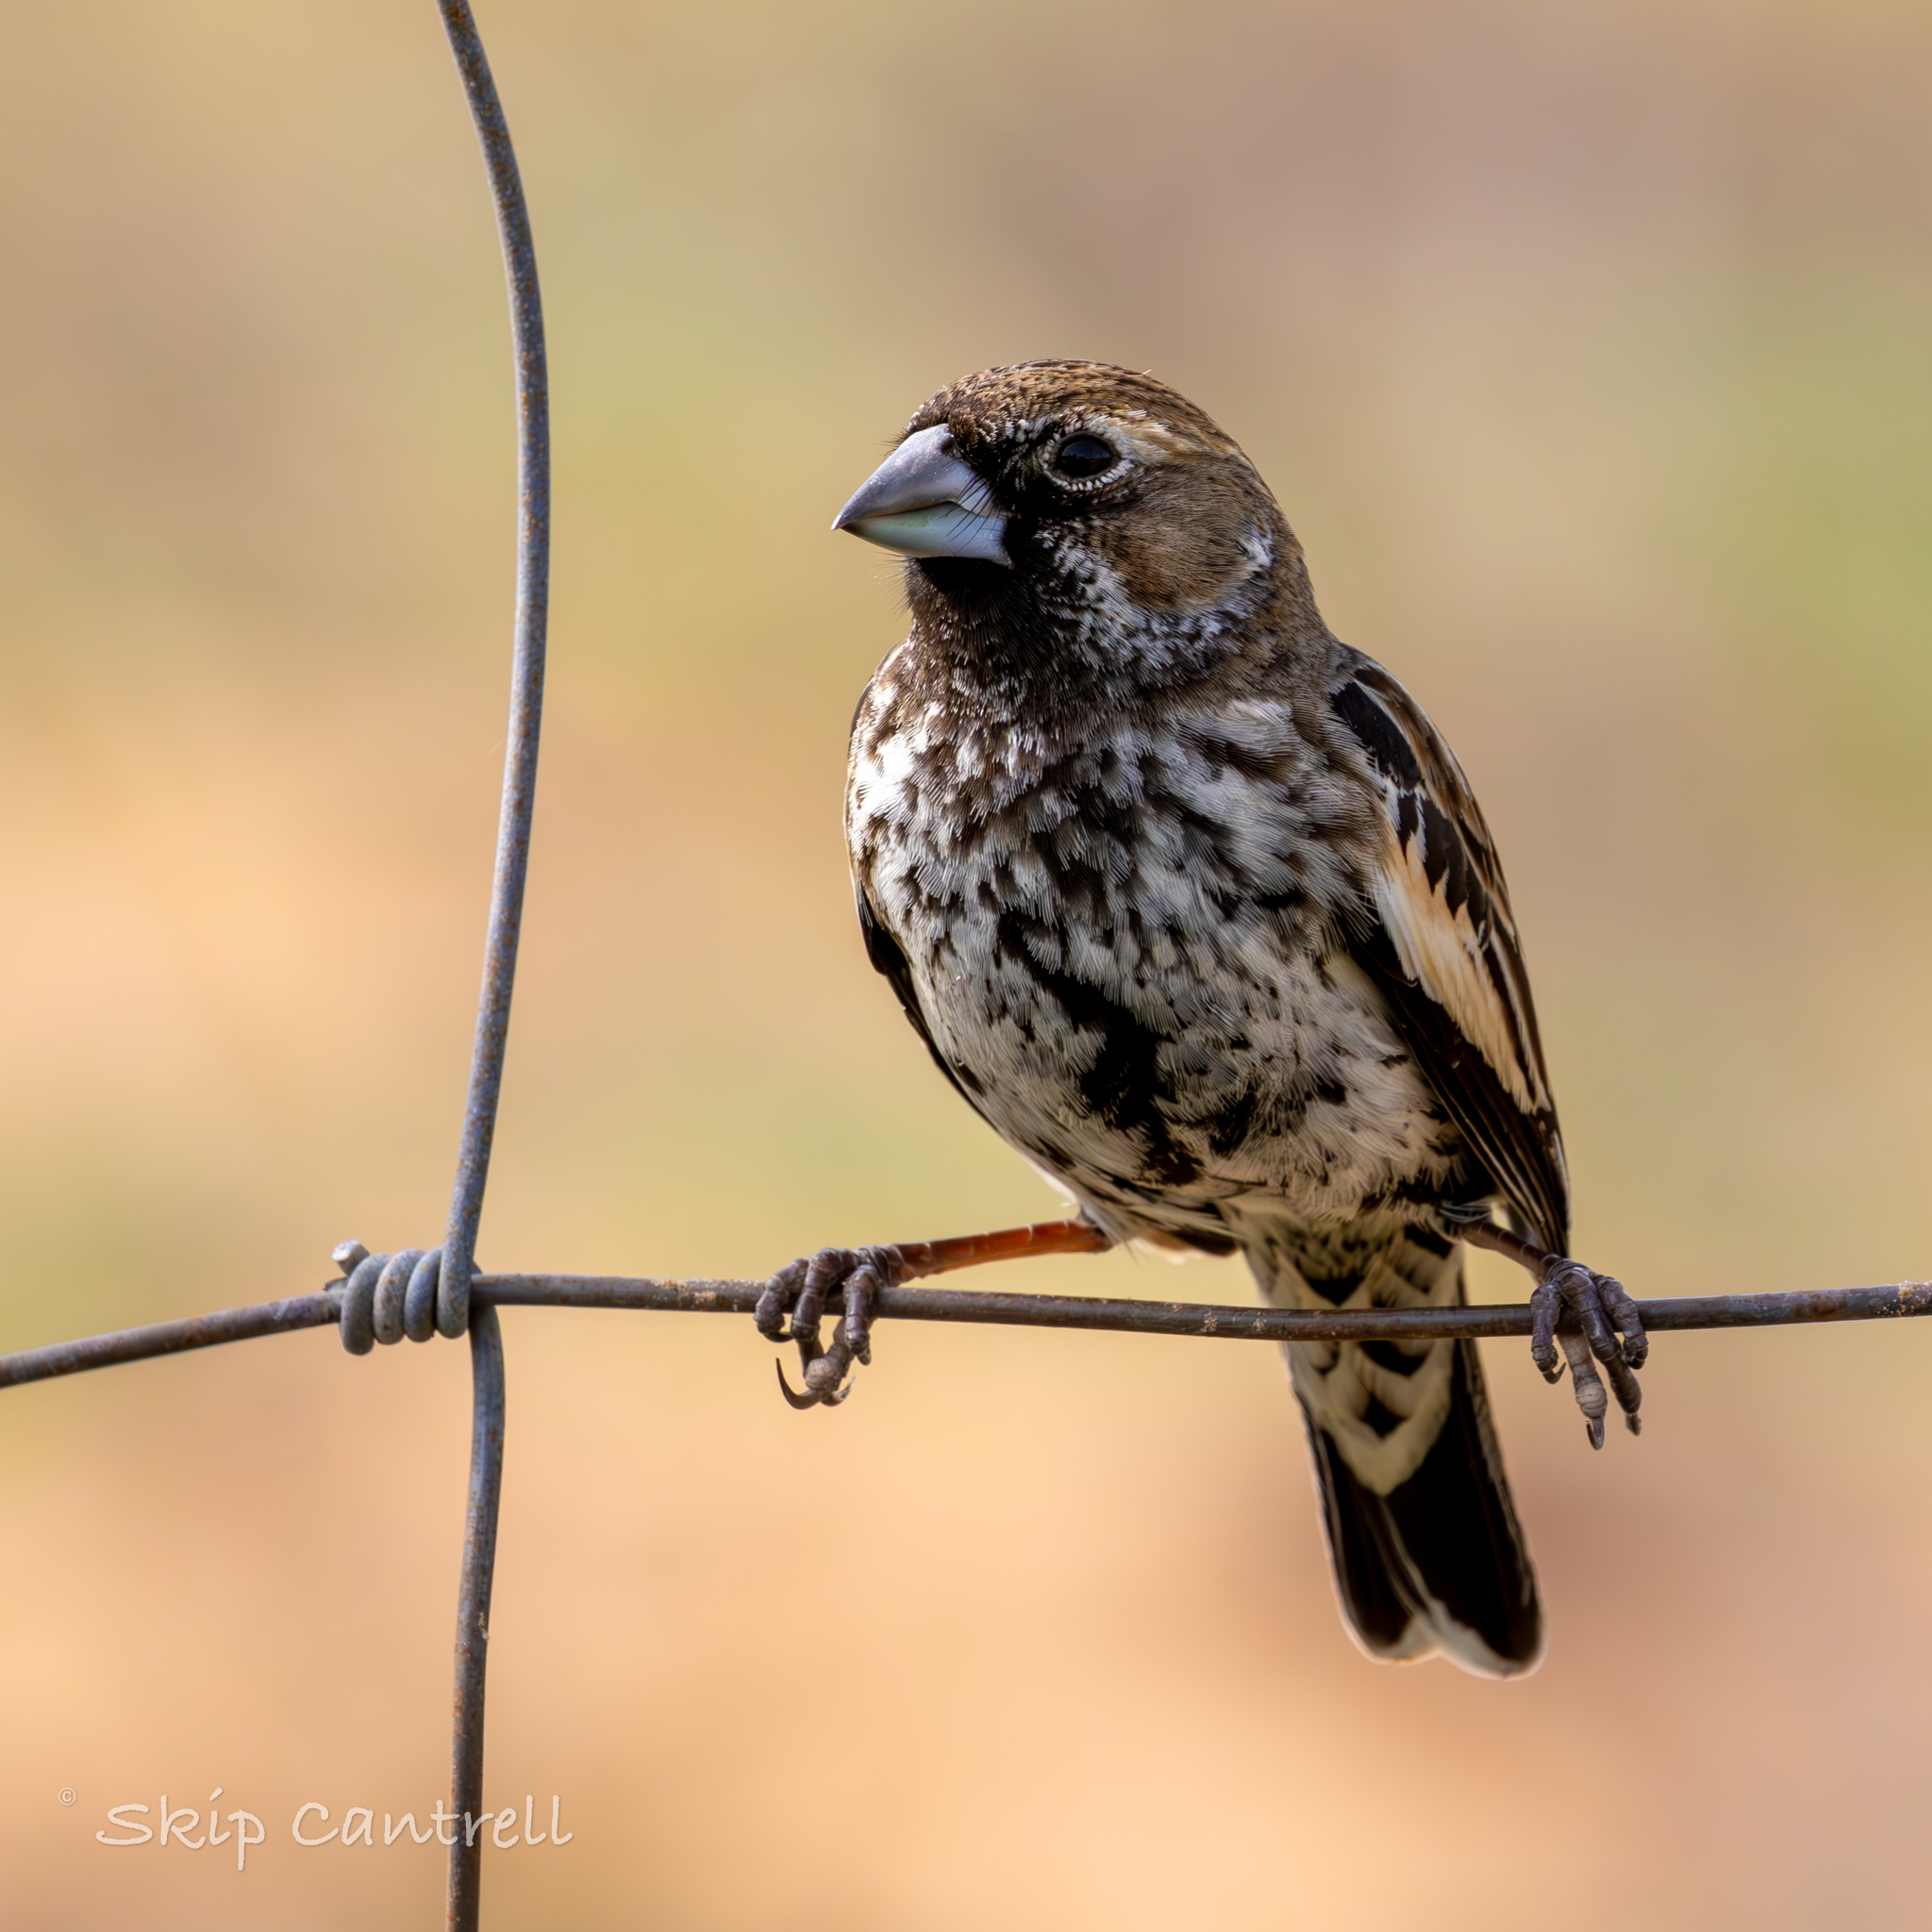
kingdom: Animalia
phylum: Chordata
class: Aves
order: Passeriformes
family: Passerellidae
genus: Calamospiza
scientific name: Calamospiza melanocorys
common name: Lark bunting
